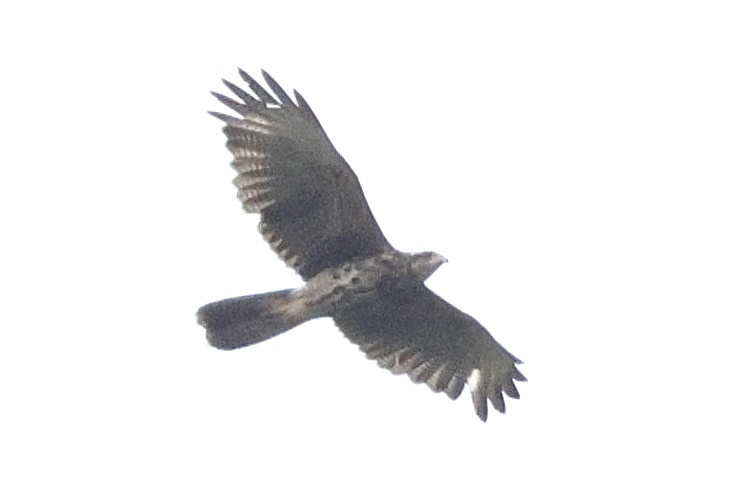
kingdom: Animalia
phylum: Chordata
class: Aves
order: Accipitriformes
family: Accipitridae
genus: Parabuteo
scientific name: Parabuteo unicinctus
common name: Harris's hawk
